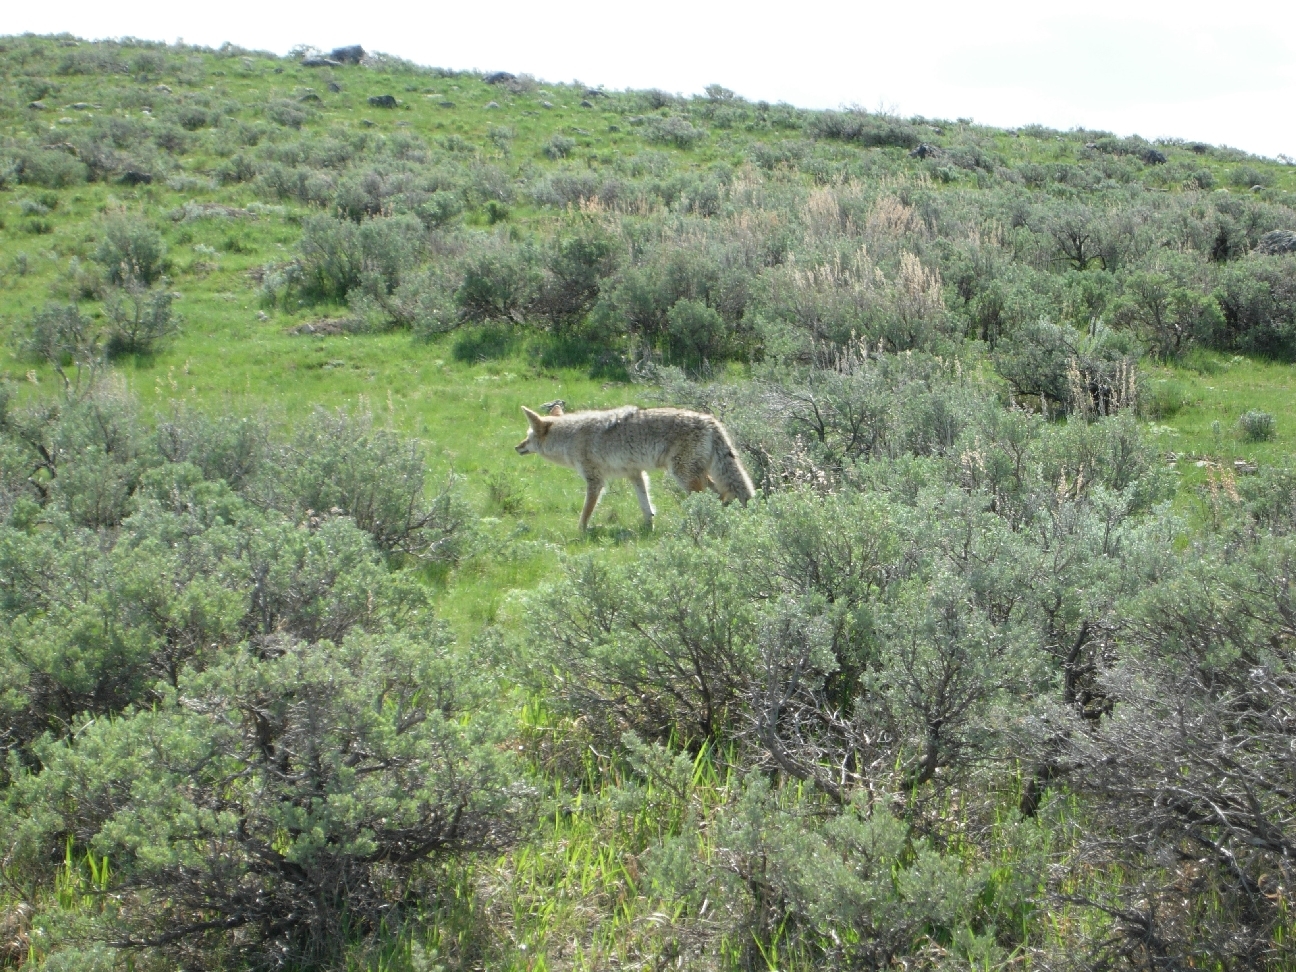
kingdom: Animalia
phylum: Chordata
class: Mammalia
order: Carnivora
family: Canidae
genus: Canis
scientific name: Canis latrans
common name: Coyote
